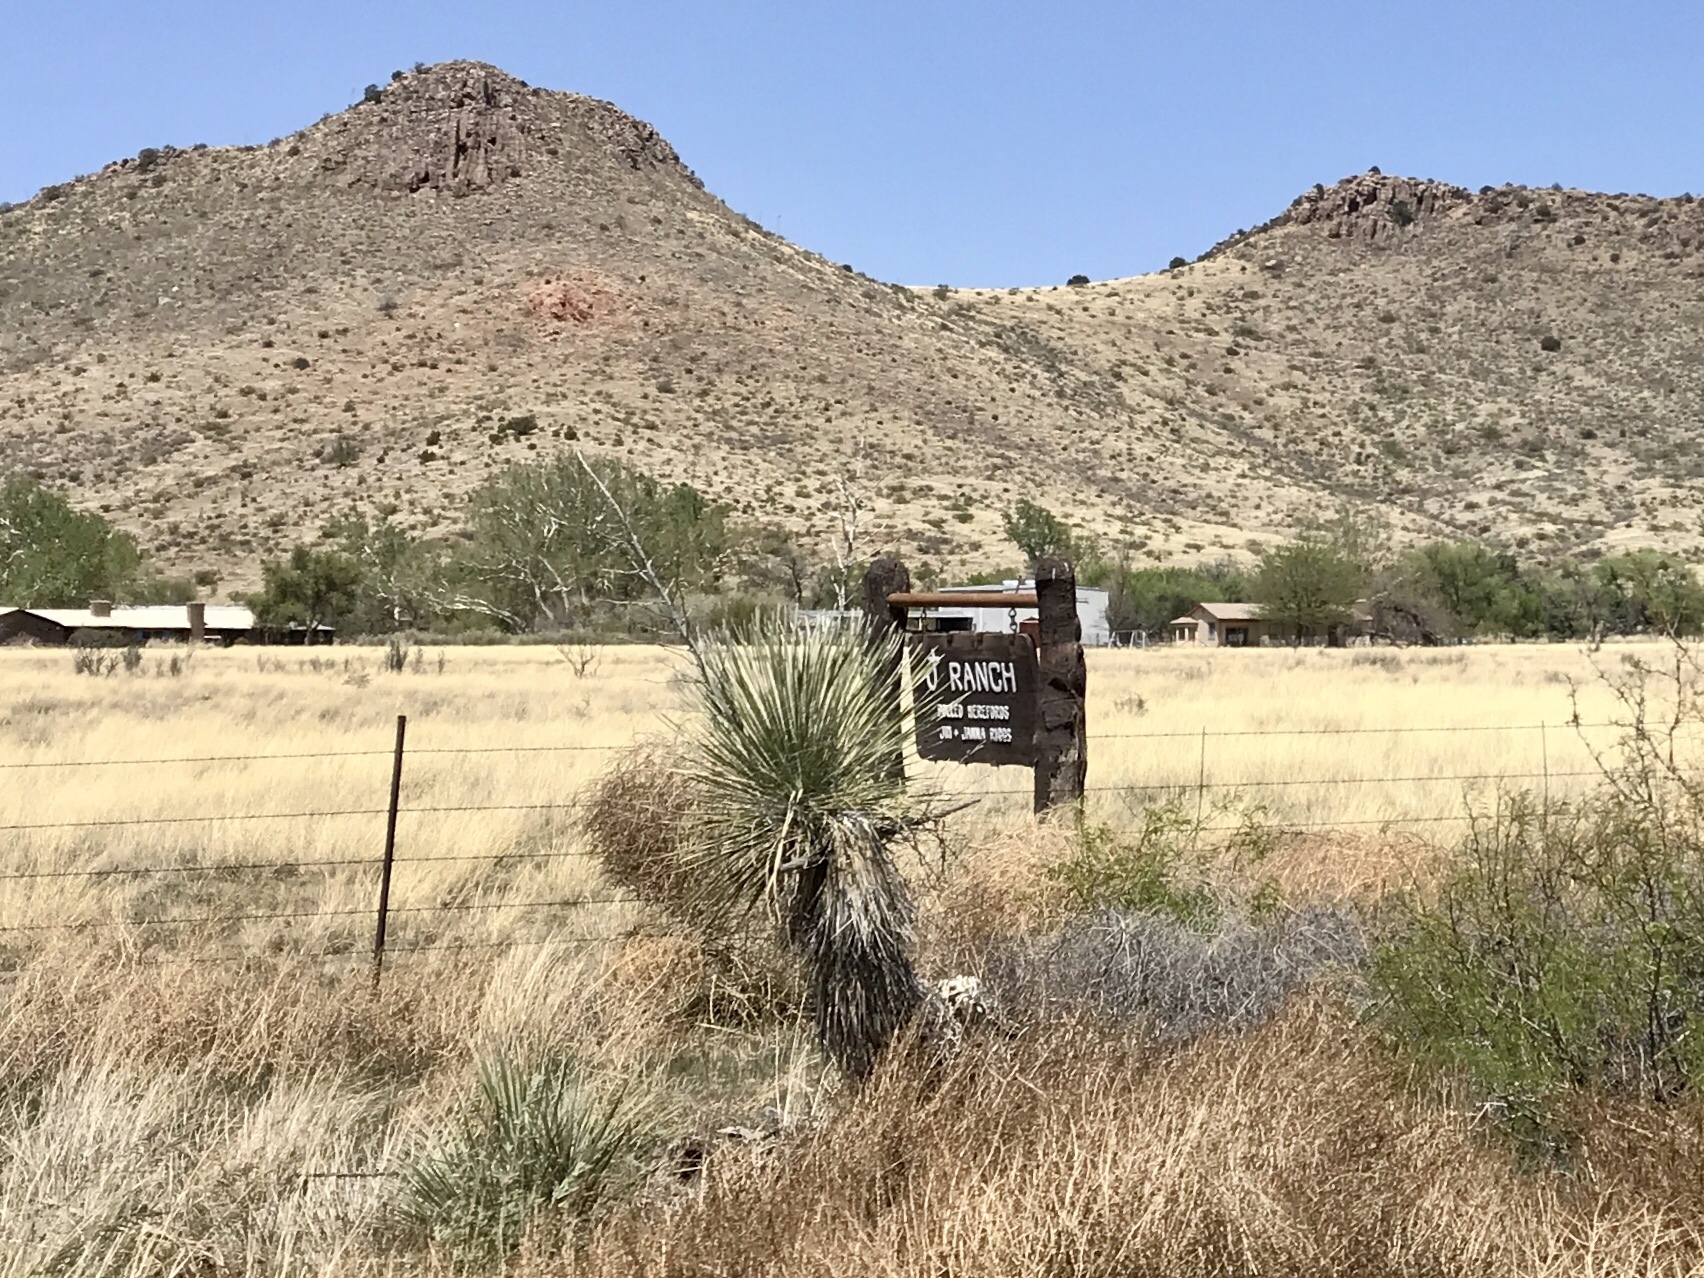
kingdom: Plantae
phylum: Tracheophyta
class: Liliopsida
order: Asparagales
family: Asparagaceae
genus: Yucca
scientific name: Yucca elata
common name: Palmella
